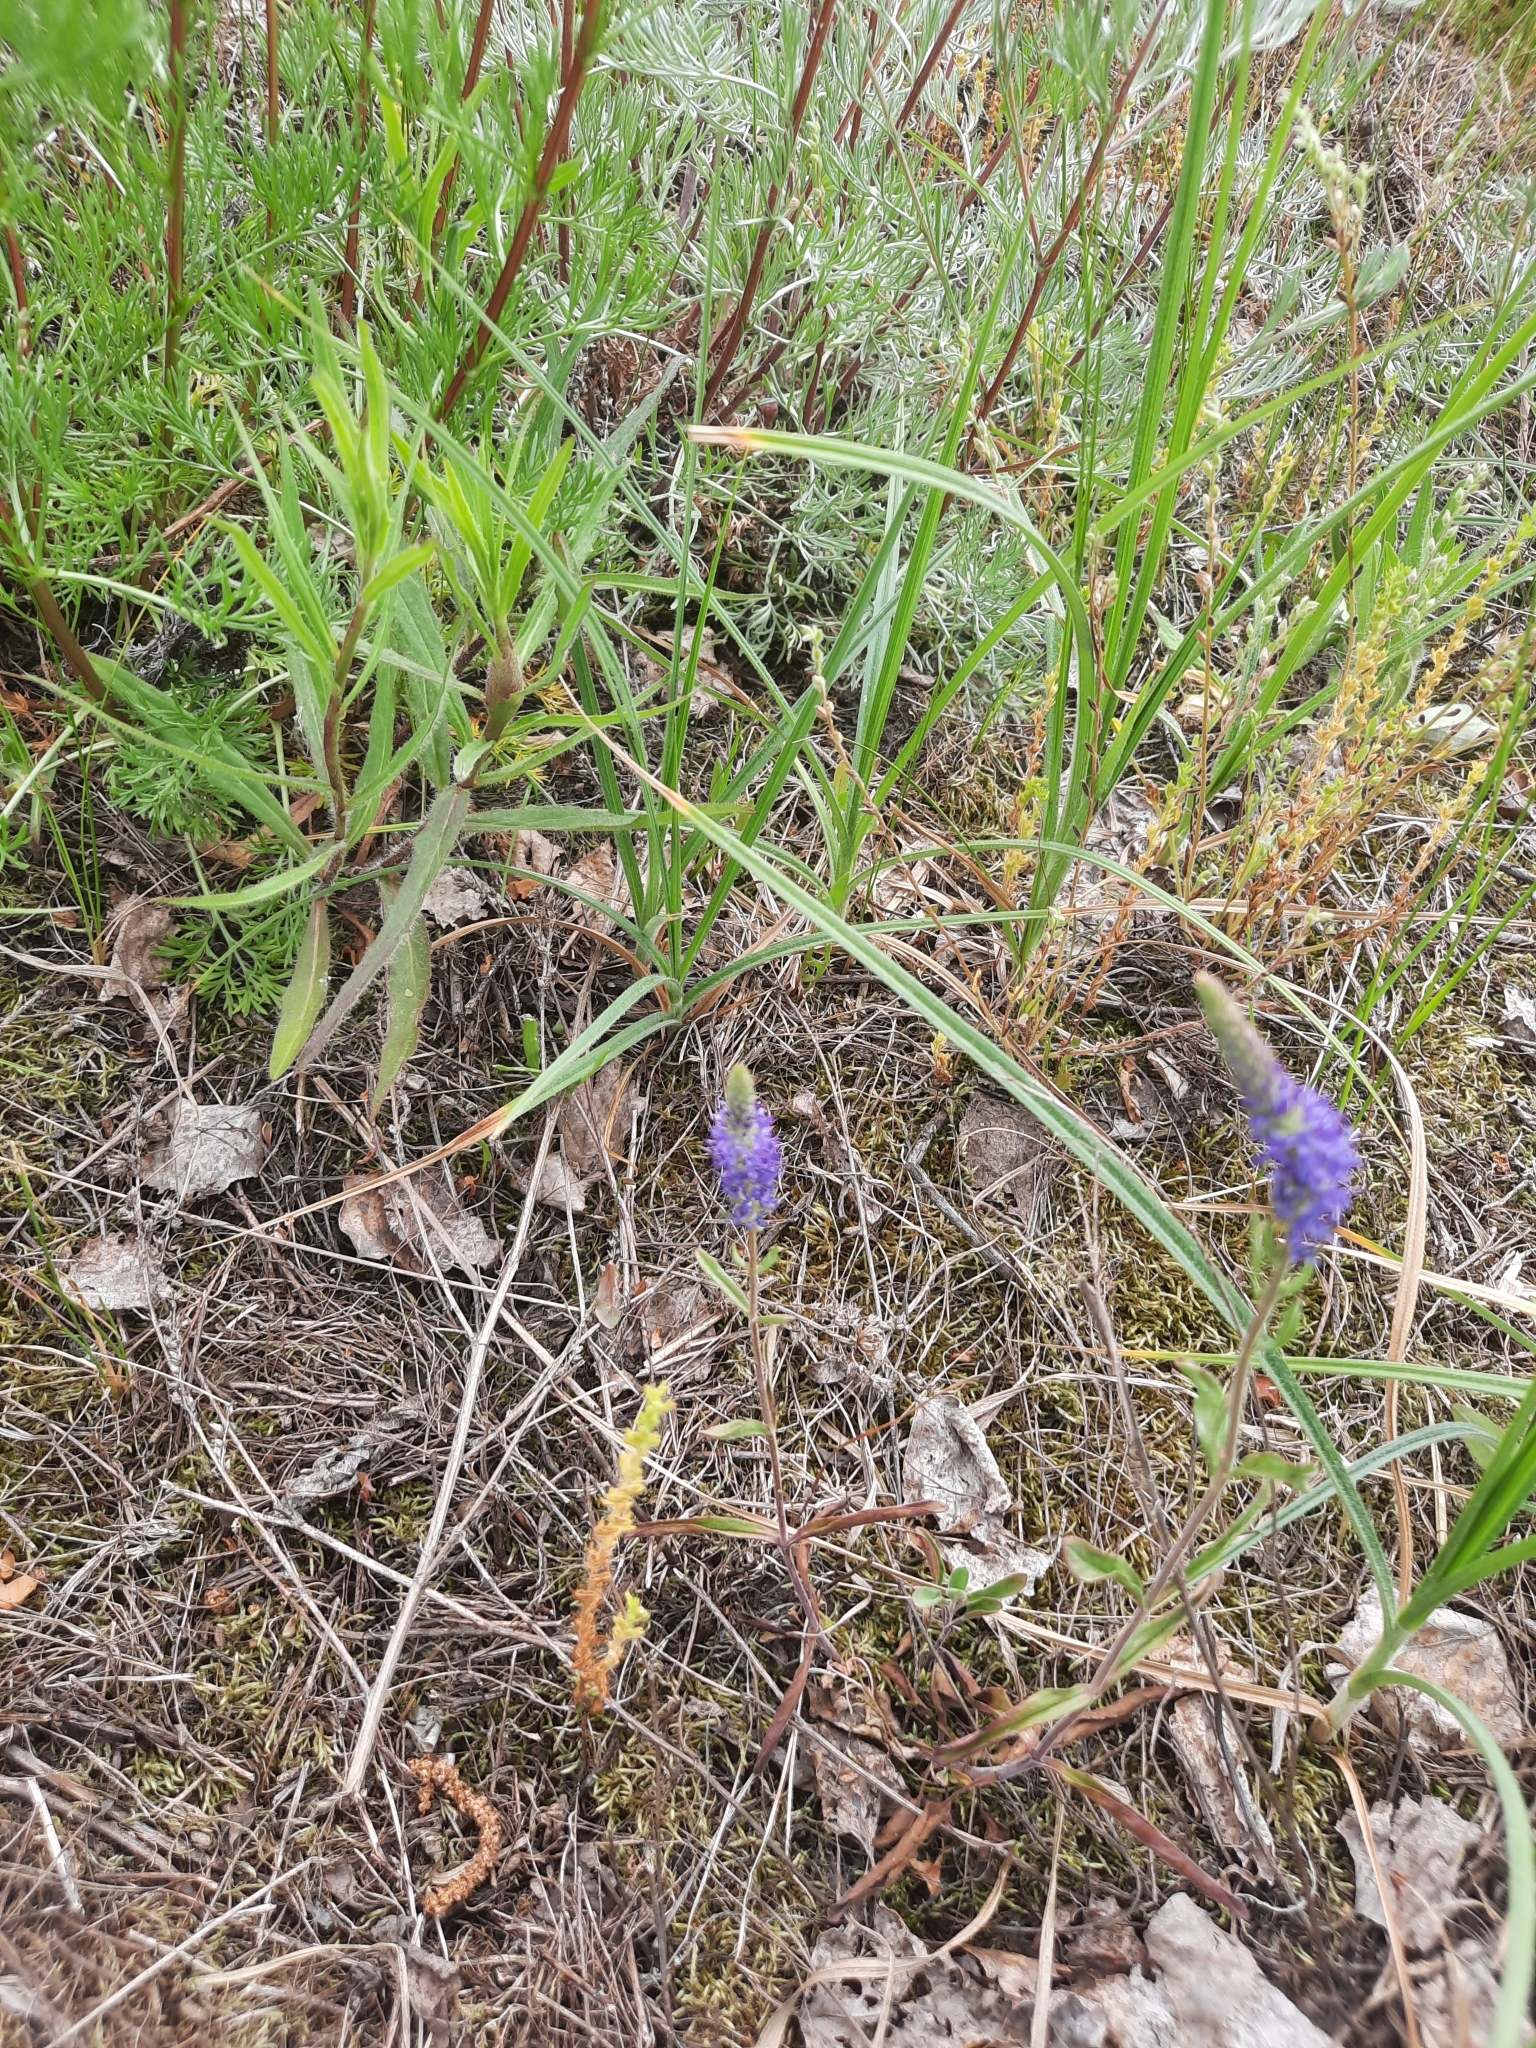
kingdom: Plantae
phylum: Tracheophyta
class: Magnoliopsida
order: Lamiales
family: Plantaginaceae
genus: Veronica
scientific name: Veronica spicata
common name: Spiked speedwell
